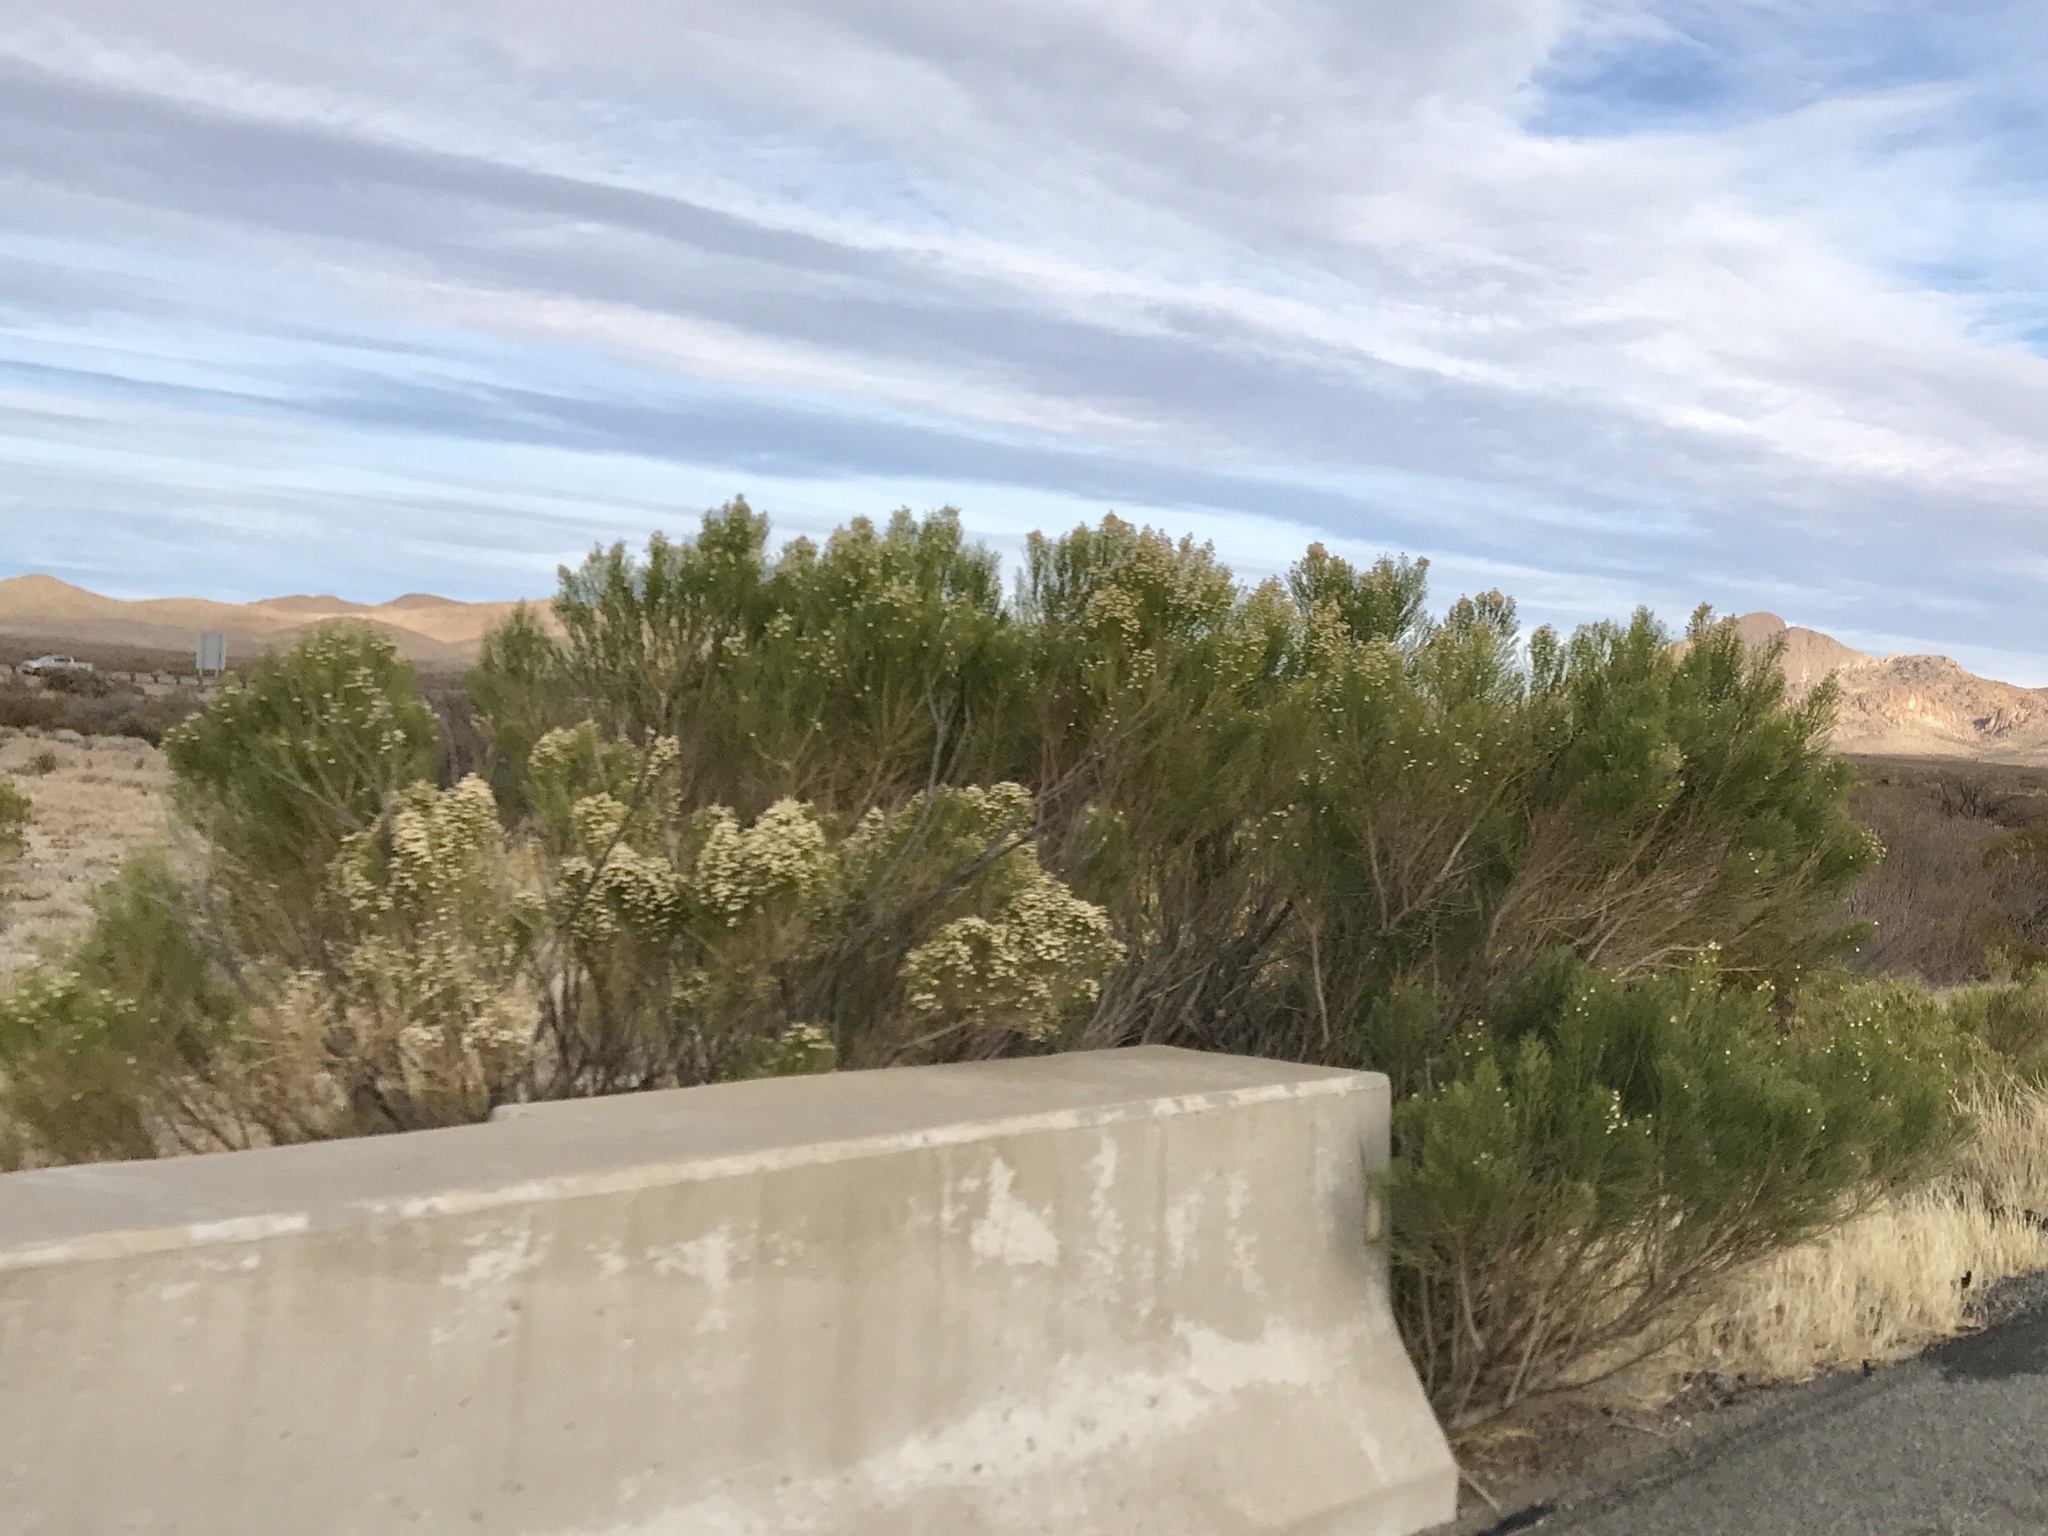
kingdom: Plantae
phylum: Tracheophyta
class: Magnoliopsida
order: Asterales
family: Asteraceae
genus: Baccharis
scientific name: Baccharis sarothroides
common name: Desert-broom
